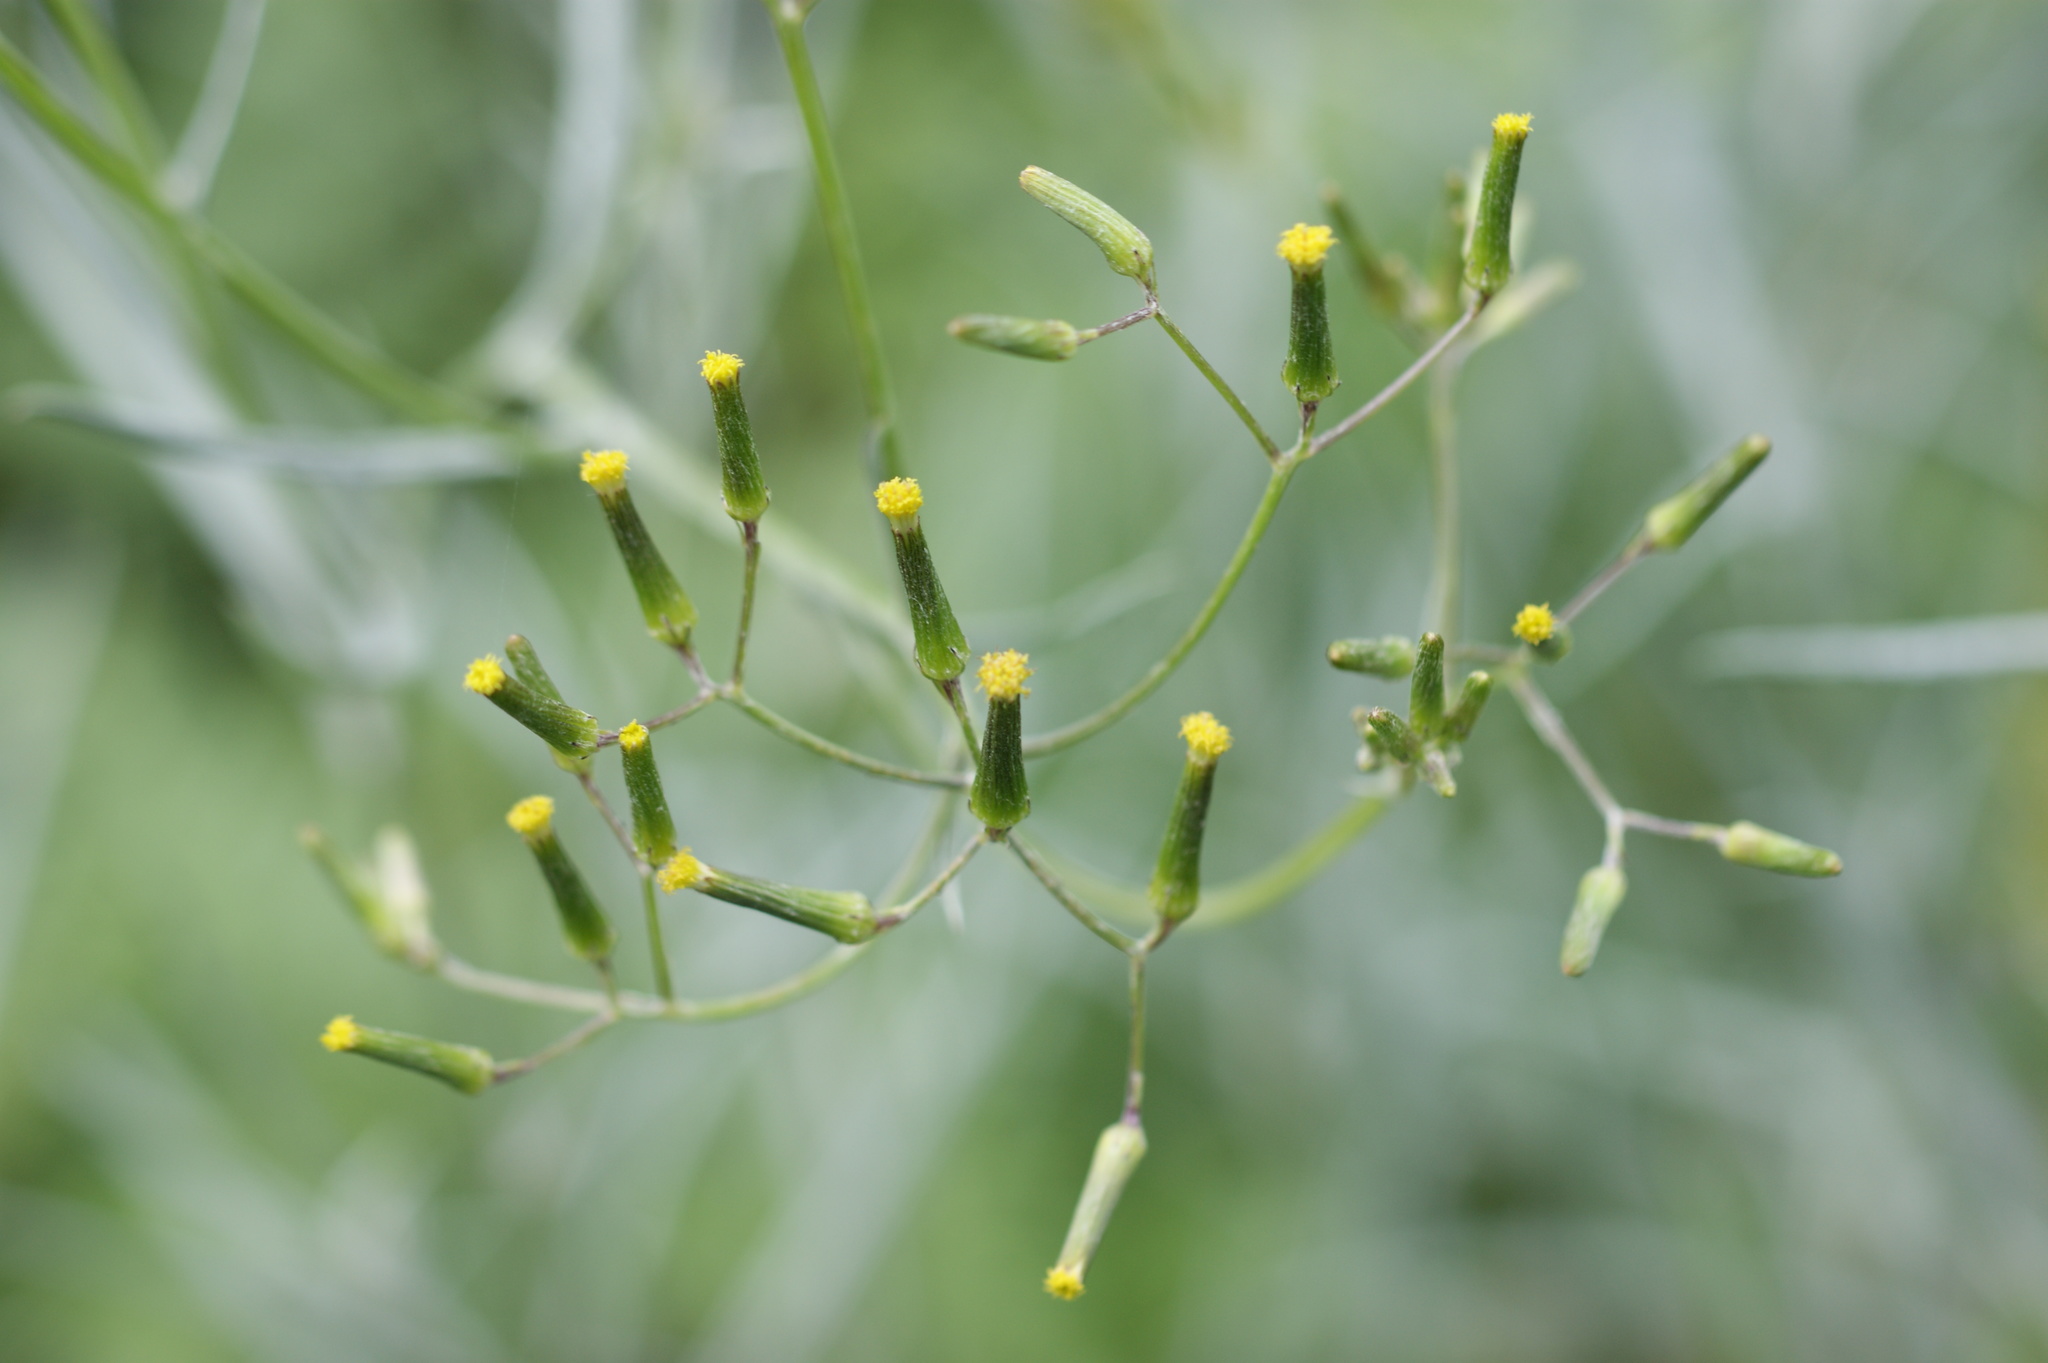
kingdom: Plantae
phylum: Tracheophyta
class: Magnoliopsida
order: Asterales
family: Asteraceae
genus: Senecio
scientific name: Senecio quadridentatus
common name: Cotton fireweed
